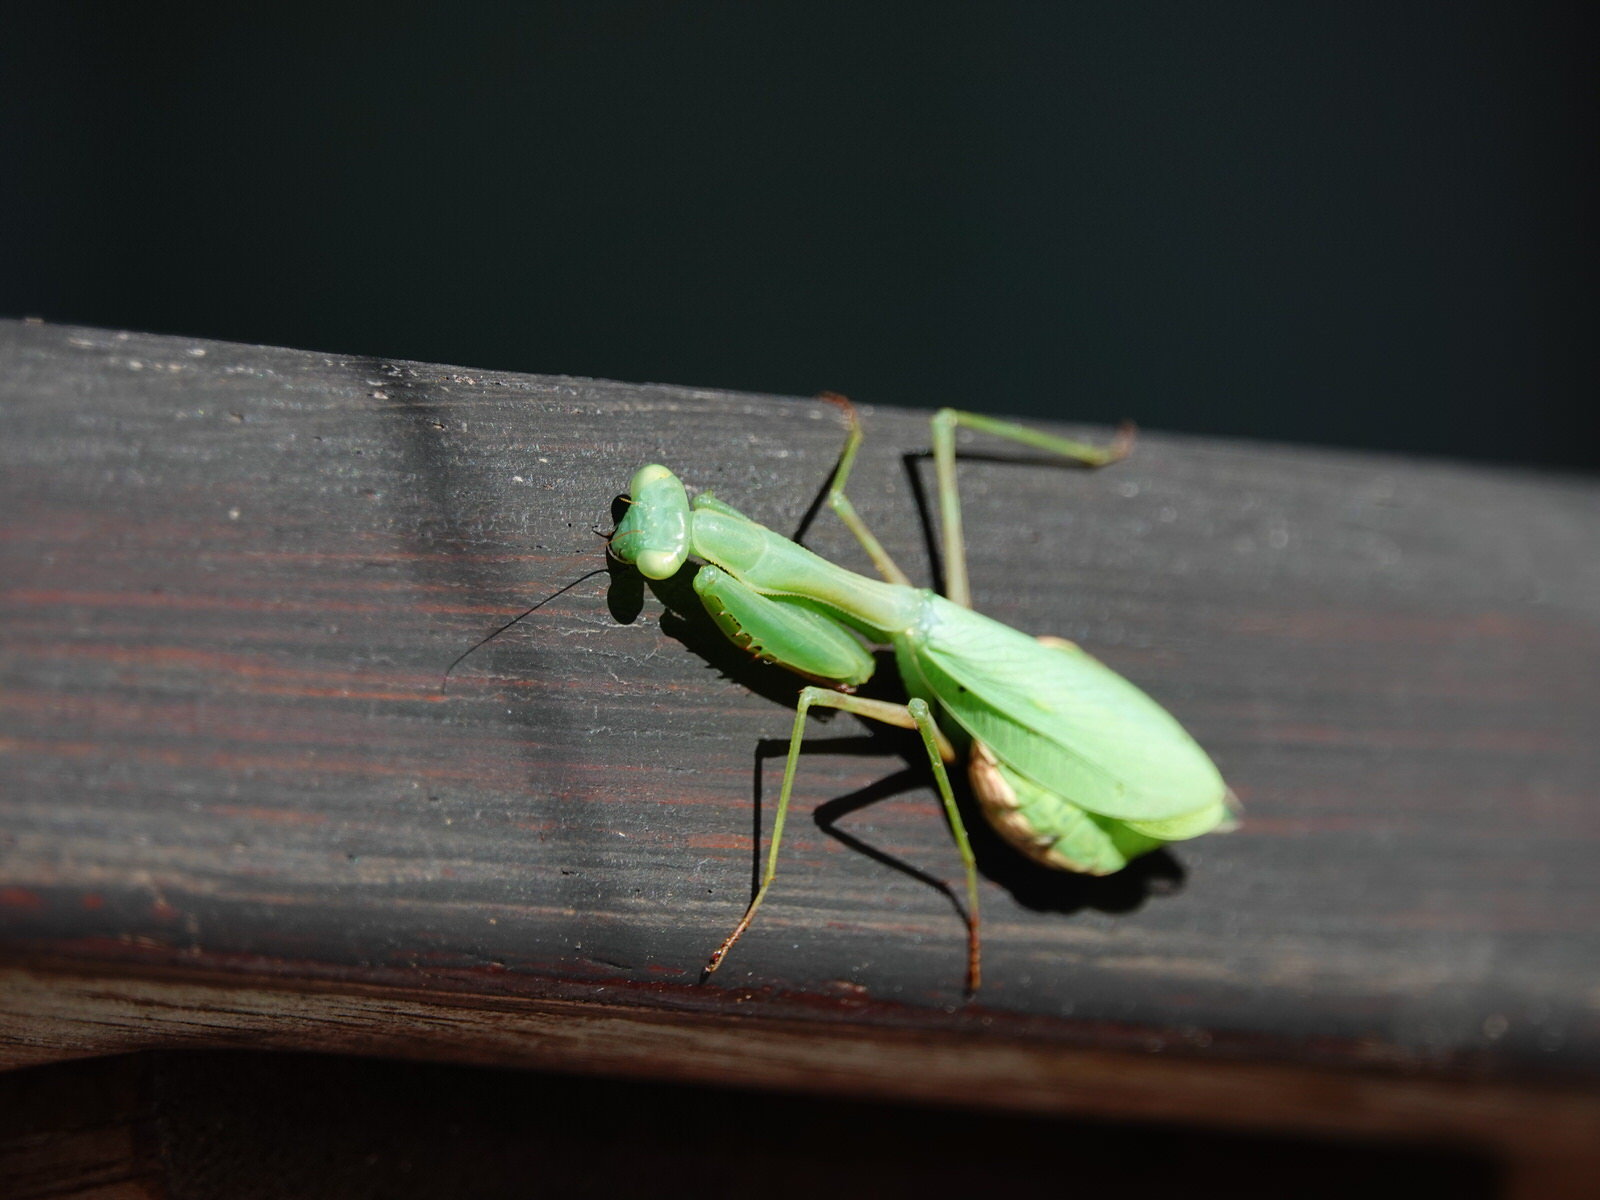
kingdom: Animalia
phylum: Arthropoda
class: Insecta
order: Mantodea
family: Miomantidae
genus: Miomantis
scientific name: Miomantis caffra
